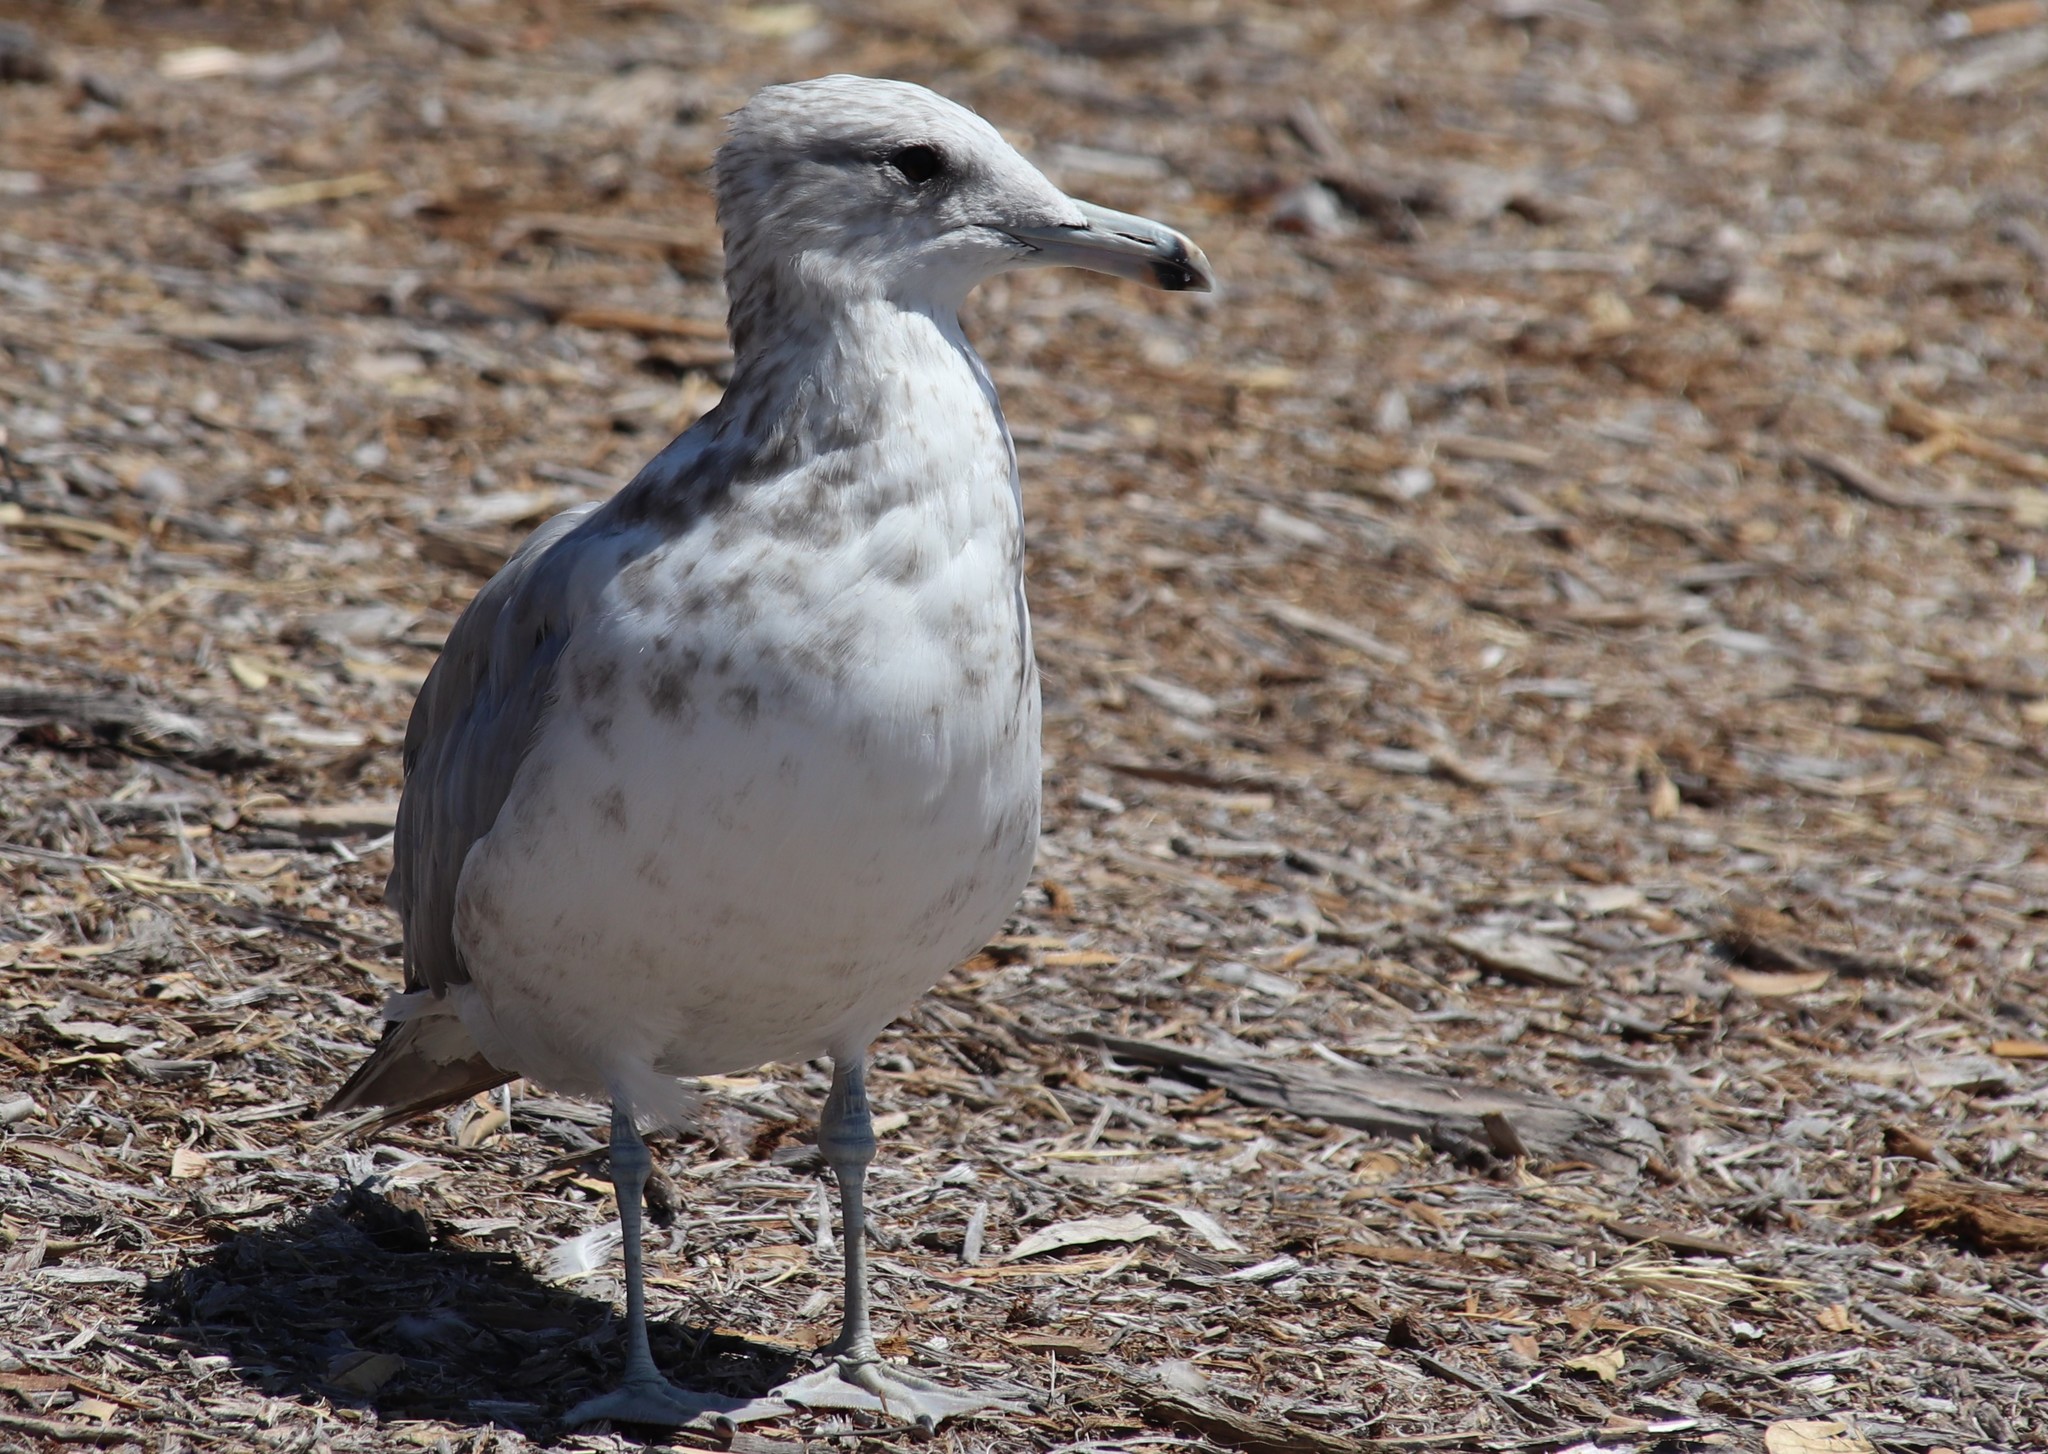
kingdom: Animalia
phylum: Chordata
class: Aves
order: Charadriiformes
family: Laridae
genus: Larus
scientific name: Larus californicus
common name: California gull
